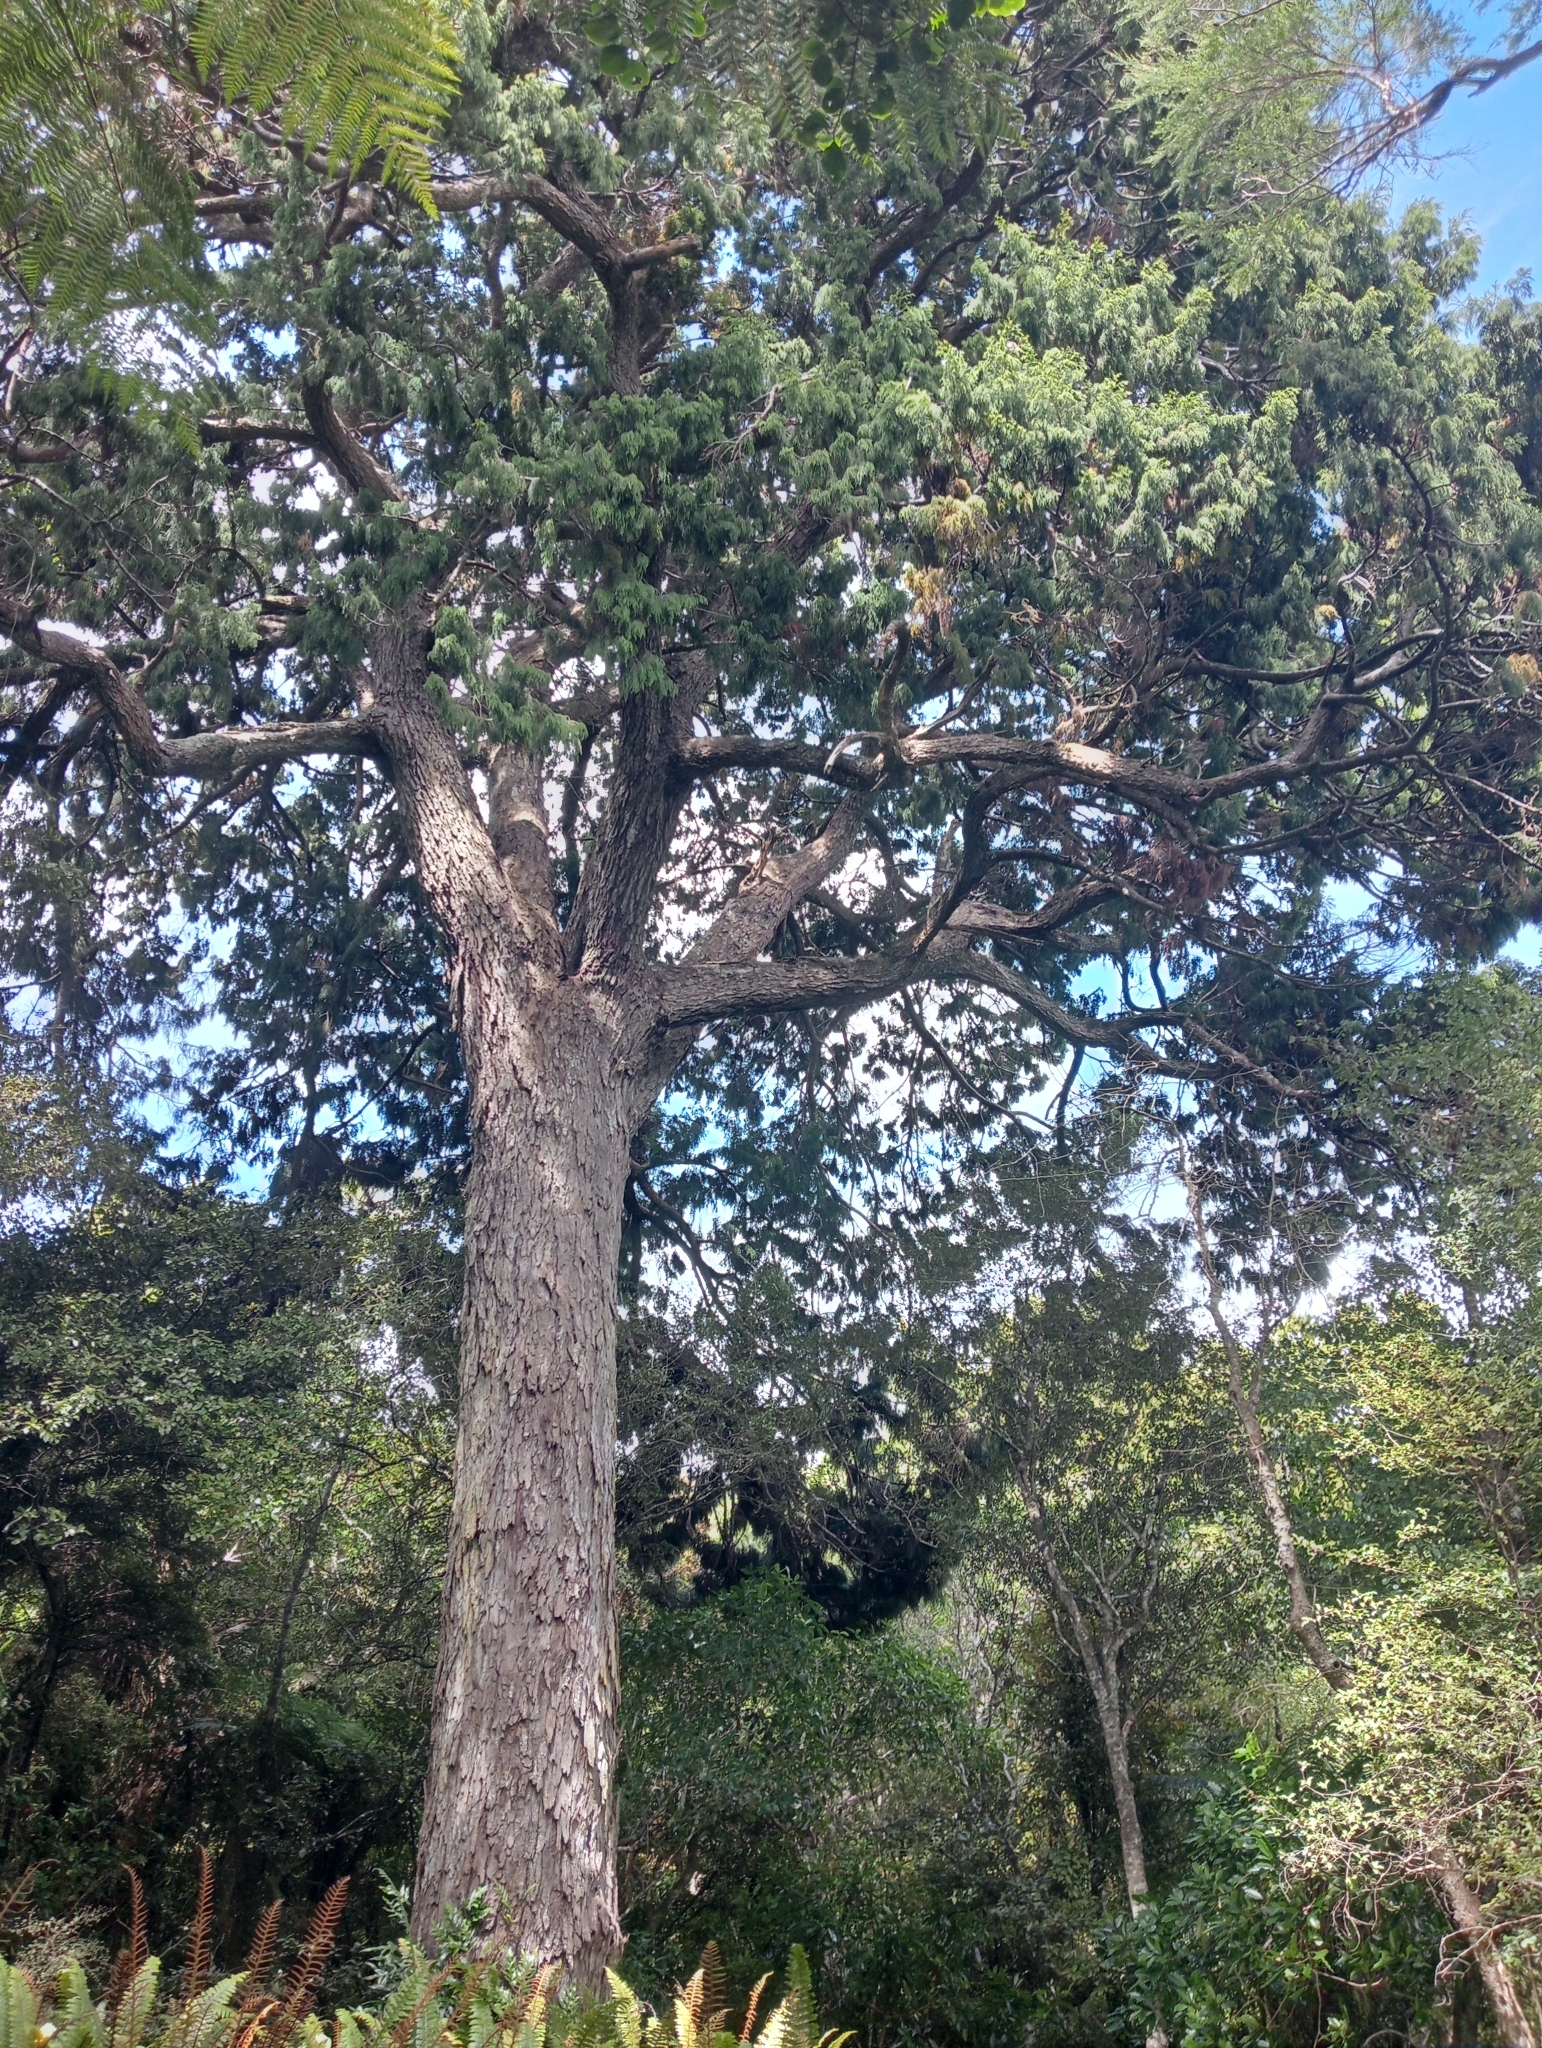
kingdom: Plantae
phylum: Tracheophyta
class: Pinopsida
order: Pinales
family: Podocarpaceae
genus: Dacrydium
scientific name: Dacrydium cupressinum
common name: Red pine
